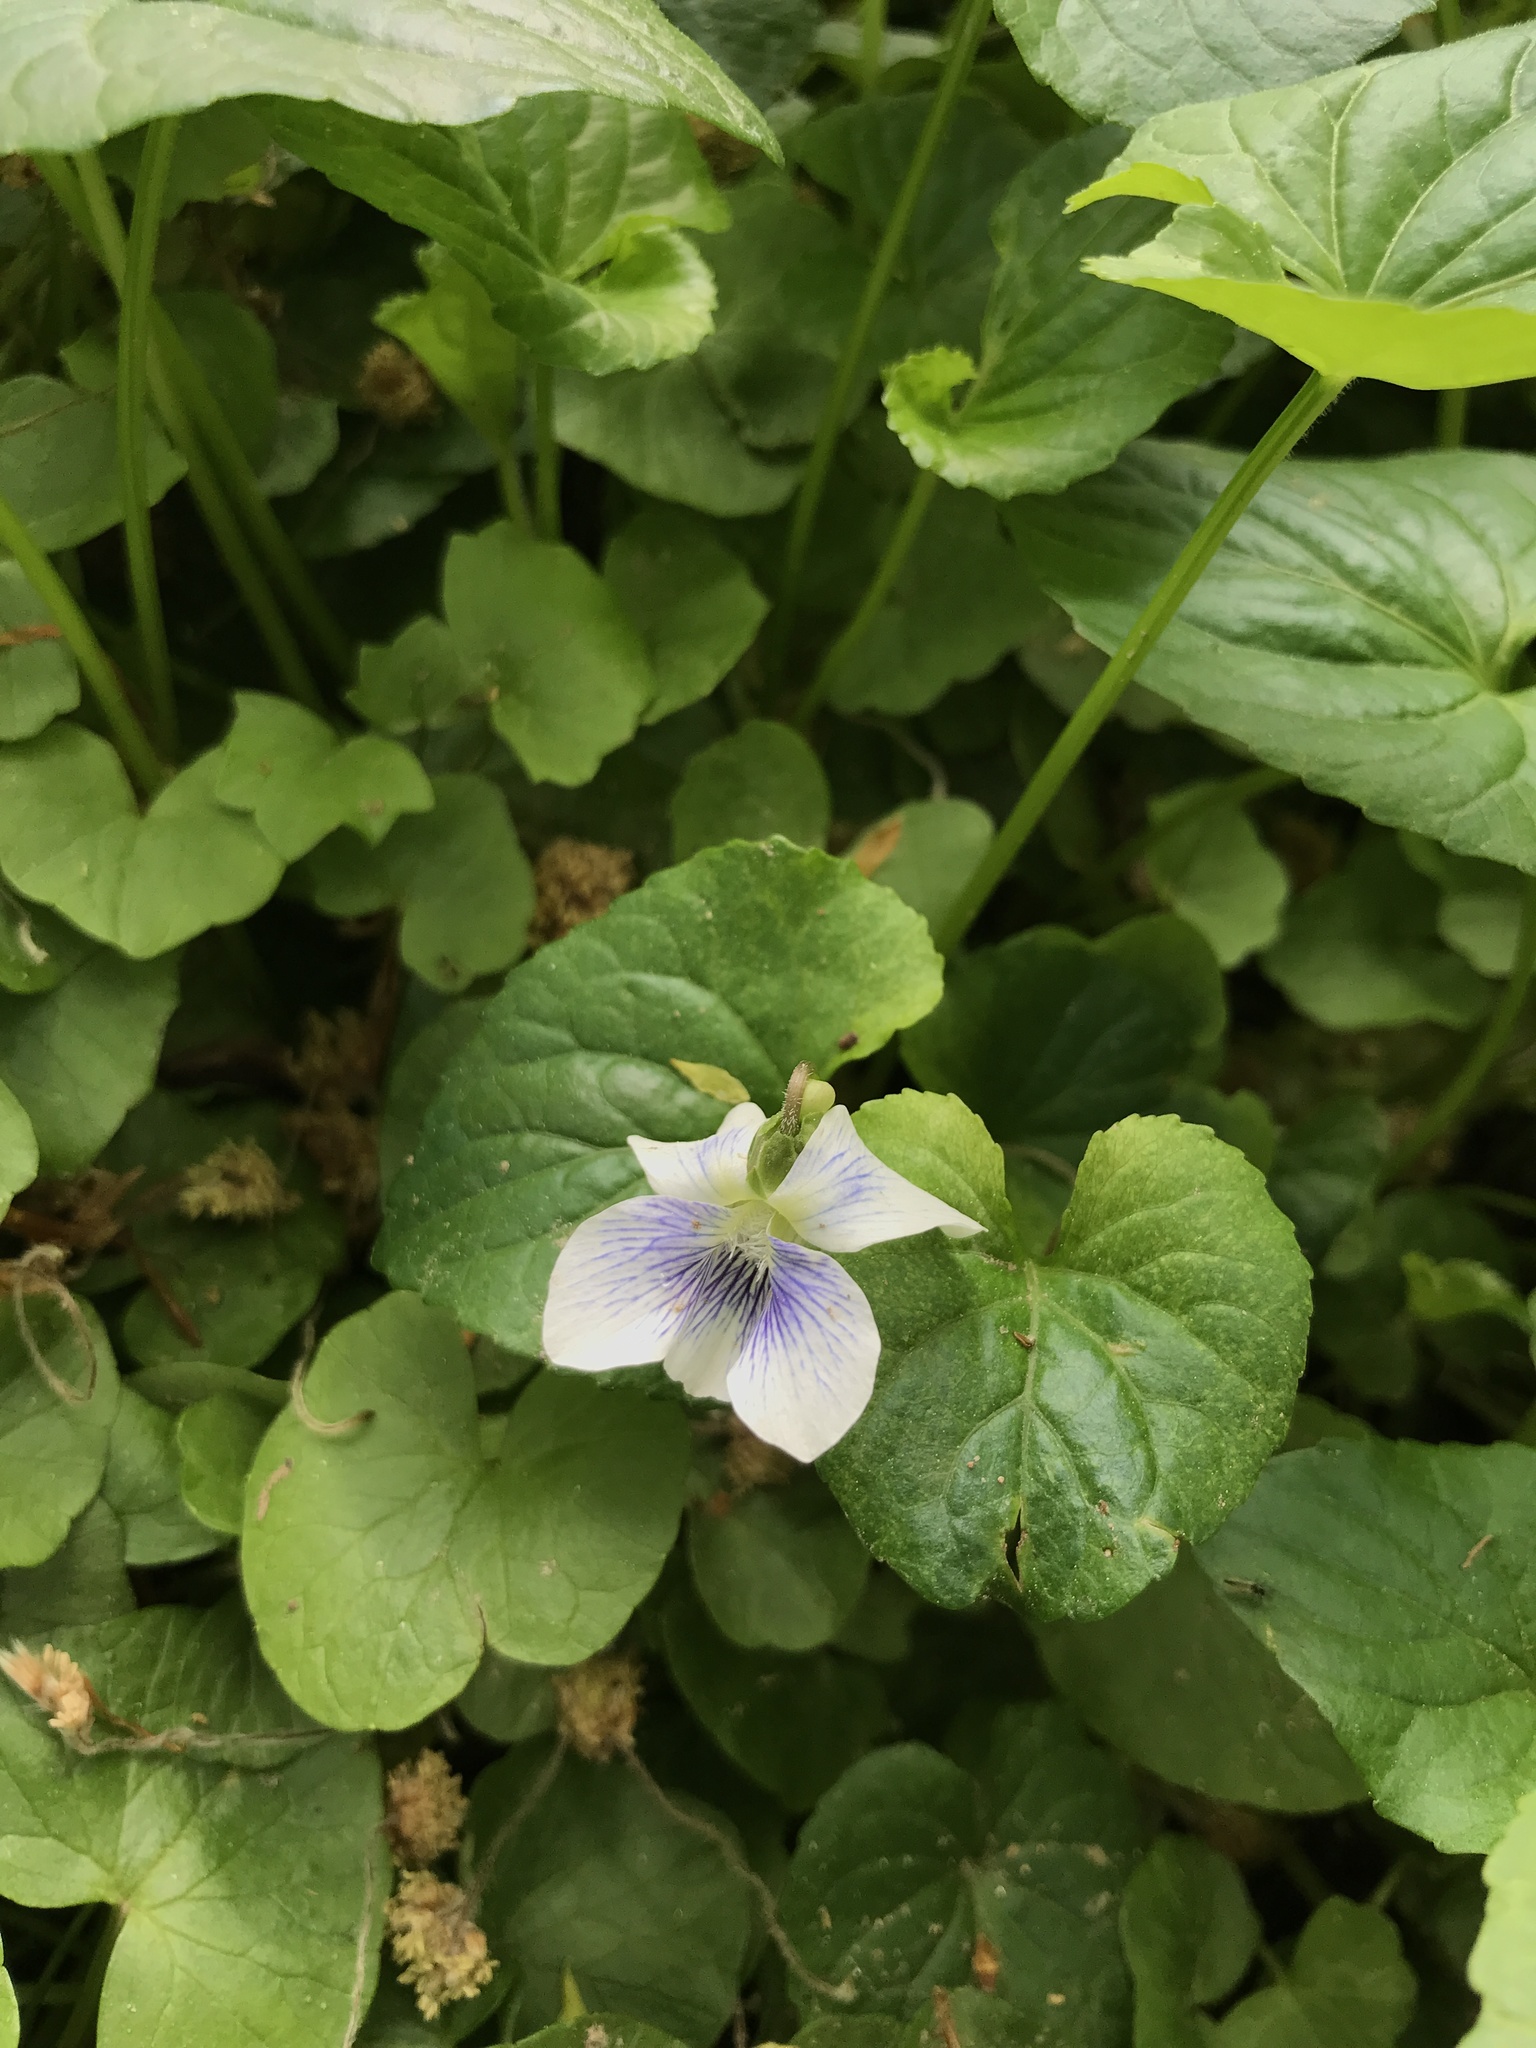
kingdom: Plantae
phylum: Tracheophyta
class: Magnoliopsida
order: Malpighiales
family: Violaceae
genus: Viola
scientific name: Viola sororia
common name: Dooryard violet
